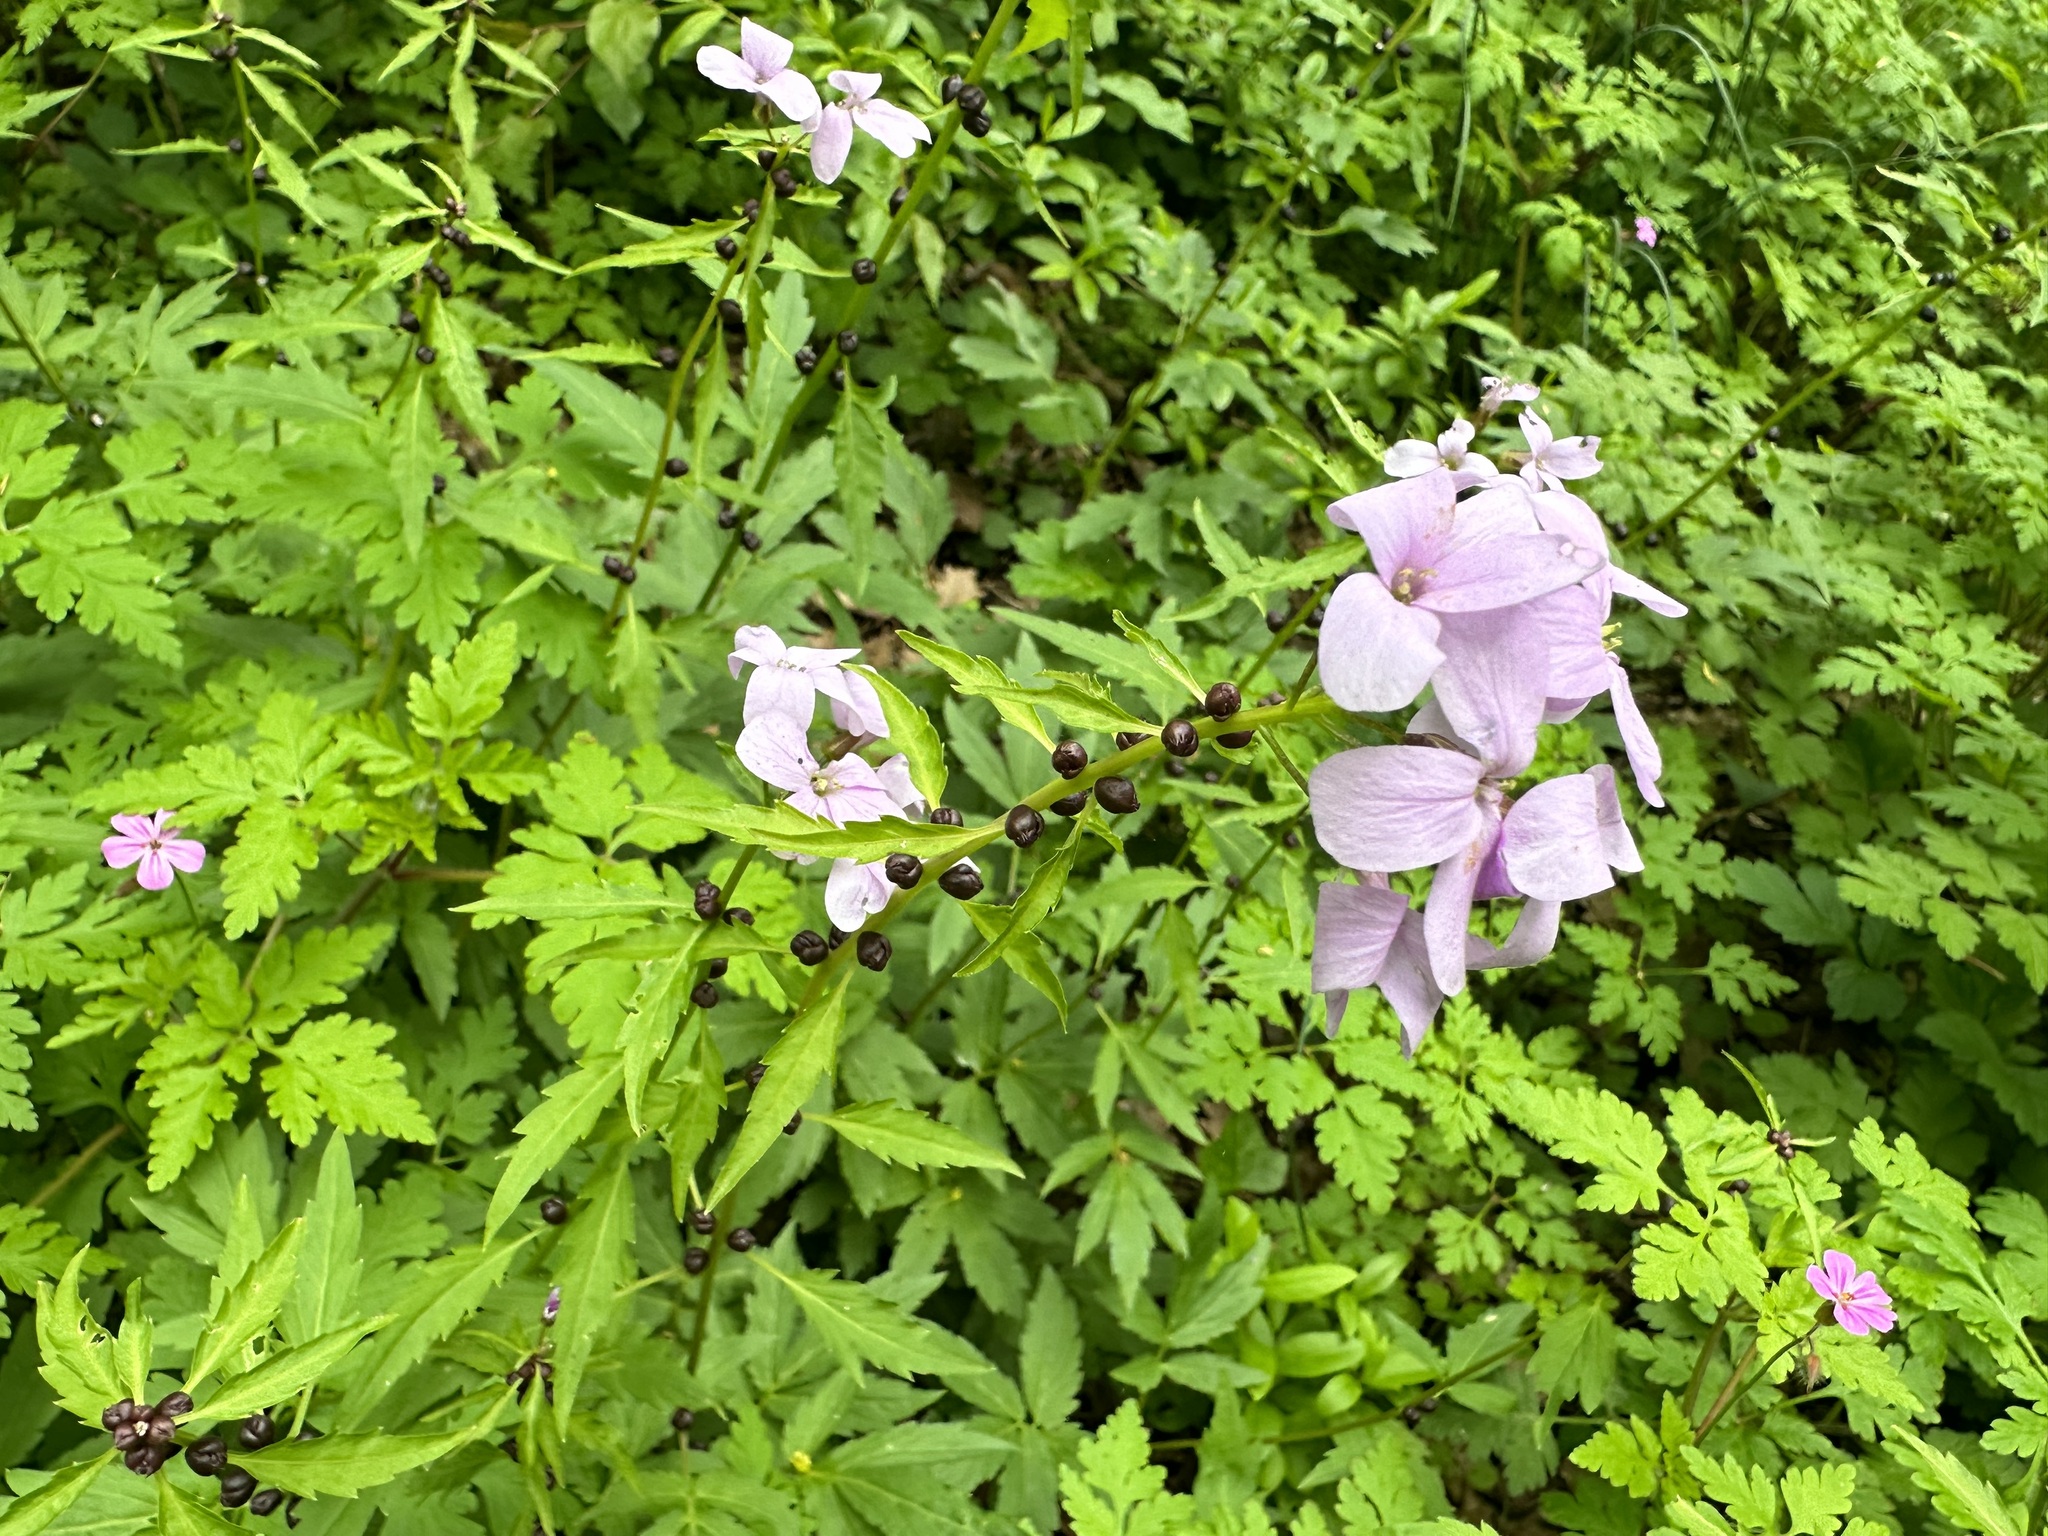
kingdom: Plantae
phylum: Tracheophyta
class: Magnoliopsida
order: Brassicales
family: Brassicaceae
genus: Cardamine
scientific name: Cardamine bulbifera
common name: Coralroot bittercress
